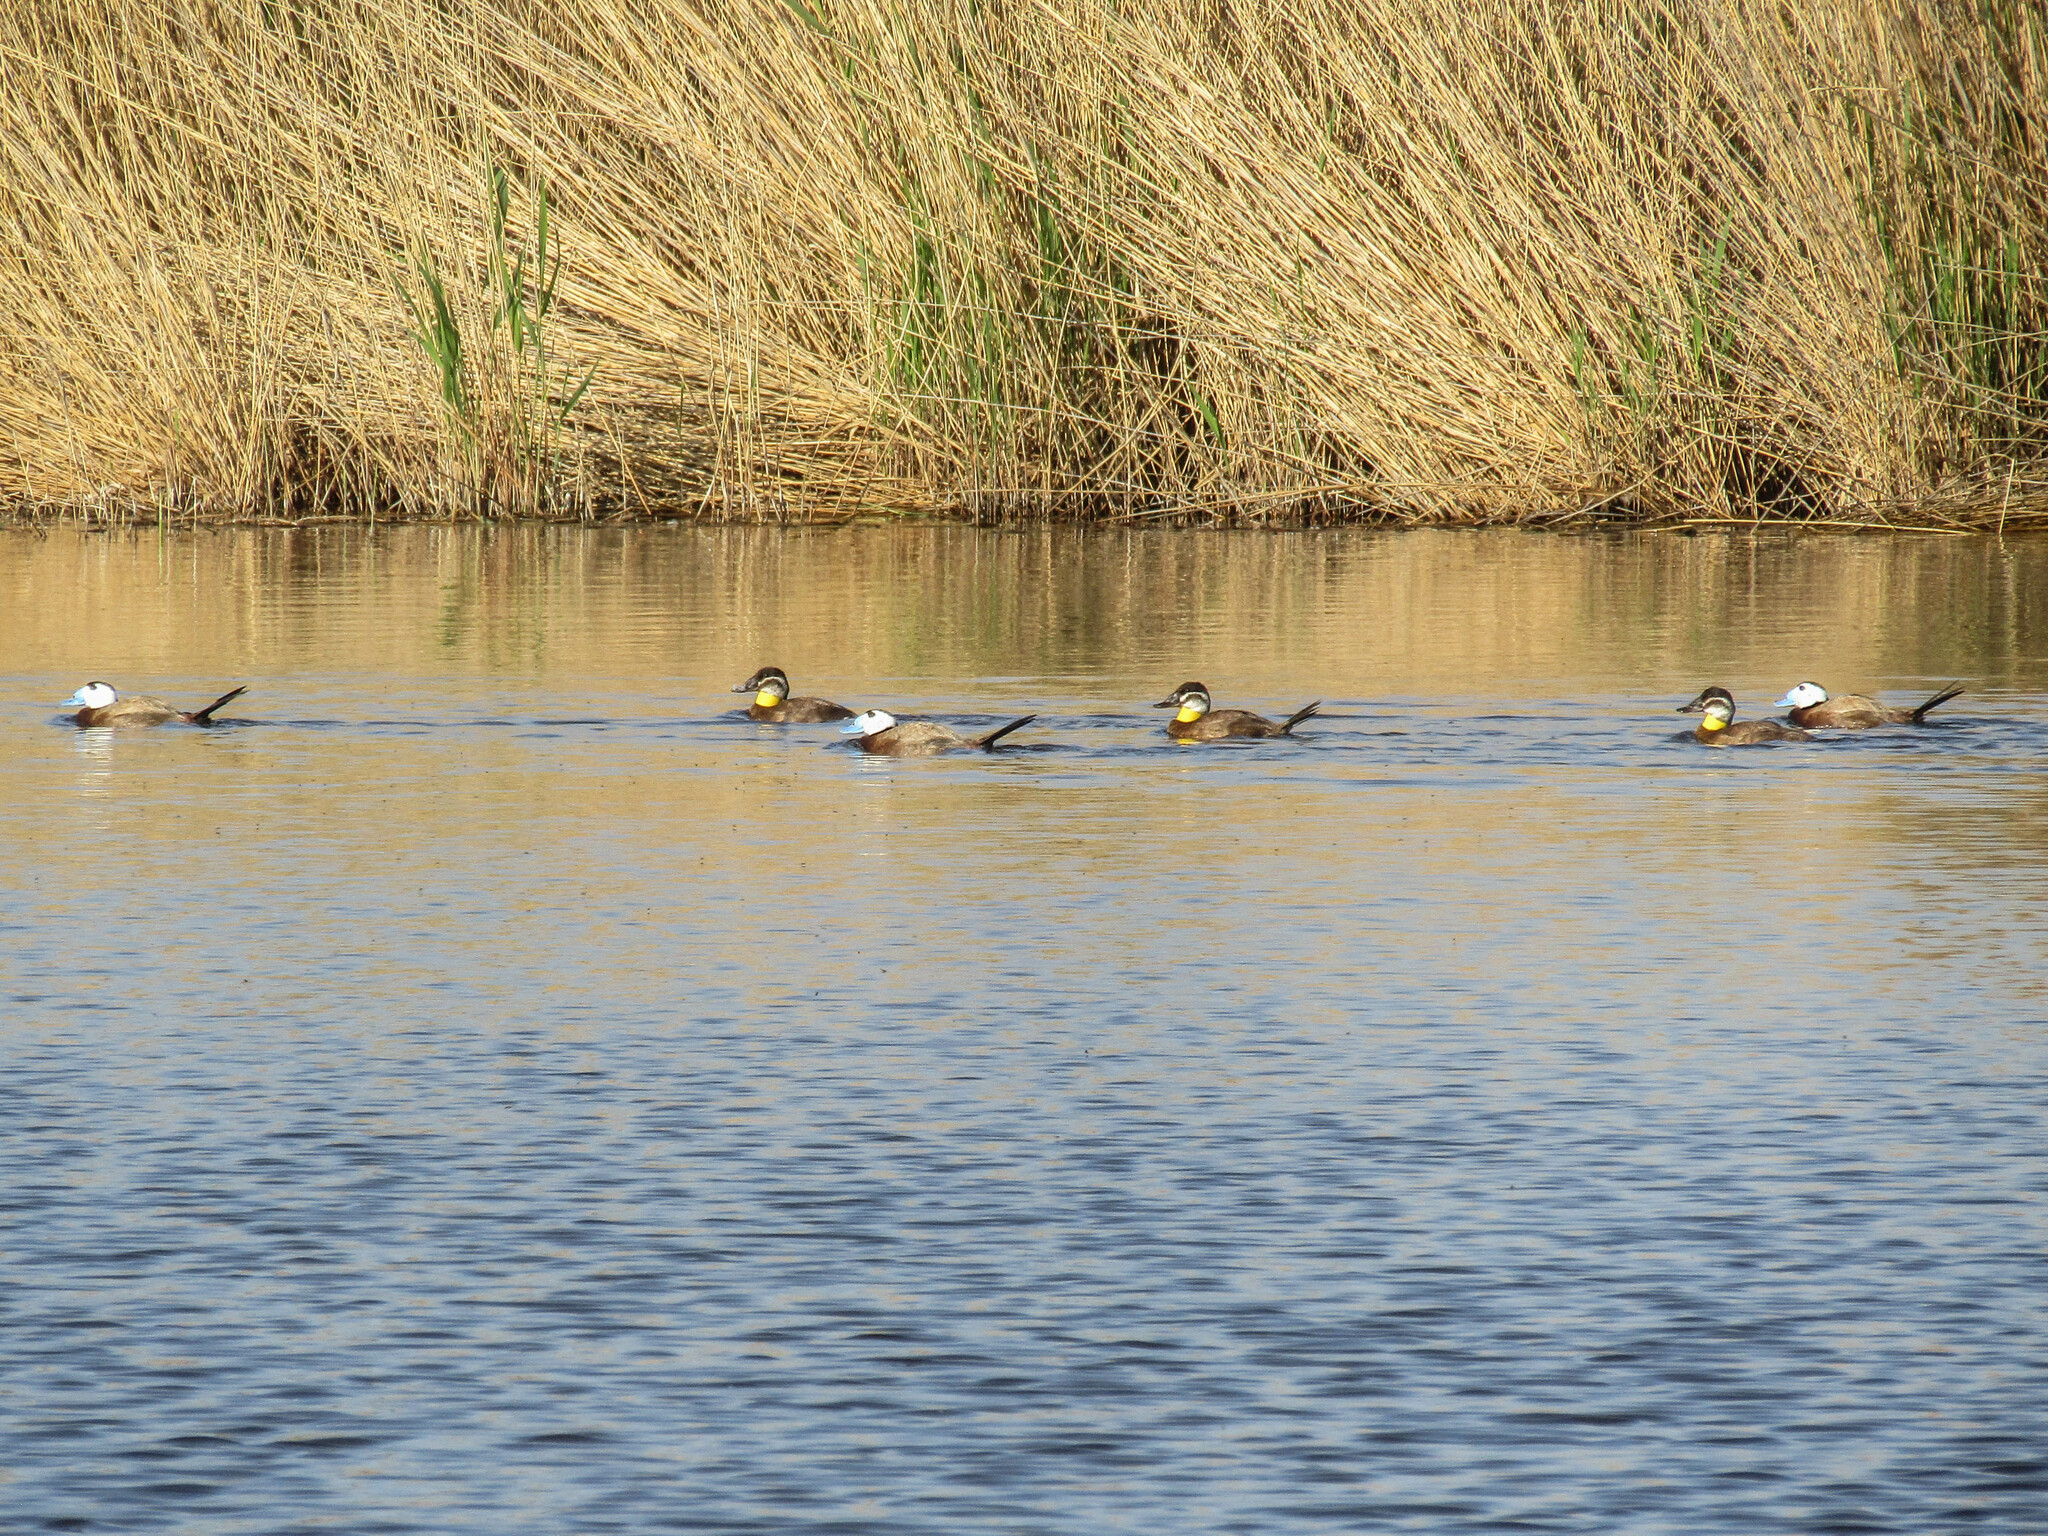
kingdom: Animalia
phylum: Chordata
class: Aves
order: Anseriformes
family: Anatidae
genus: Oxyura
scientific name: Oxyura leucocephala
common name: White-headed duck
